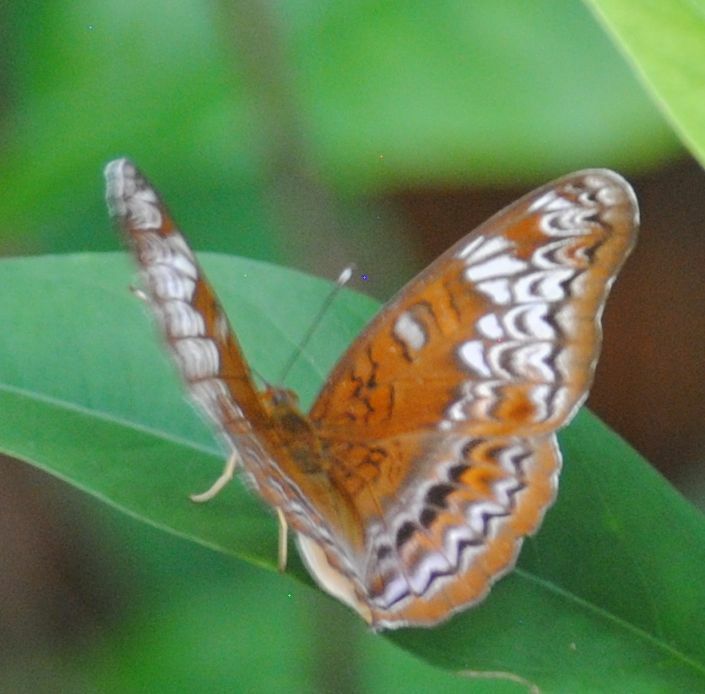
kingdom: Animalia
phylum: Arthropoda
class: Insecta
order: Lepidoptera
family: Nymphalidae
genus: Lebadea
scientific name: Lebadea martha
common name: Knight
